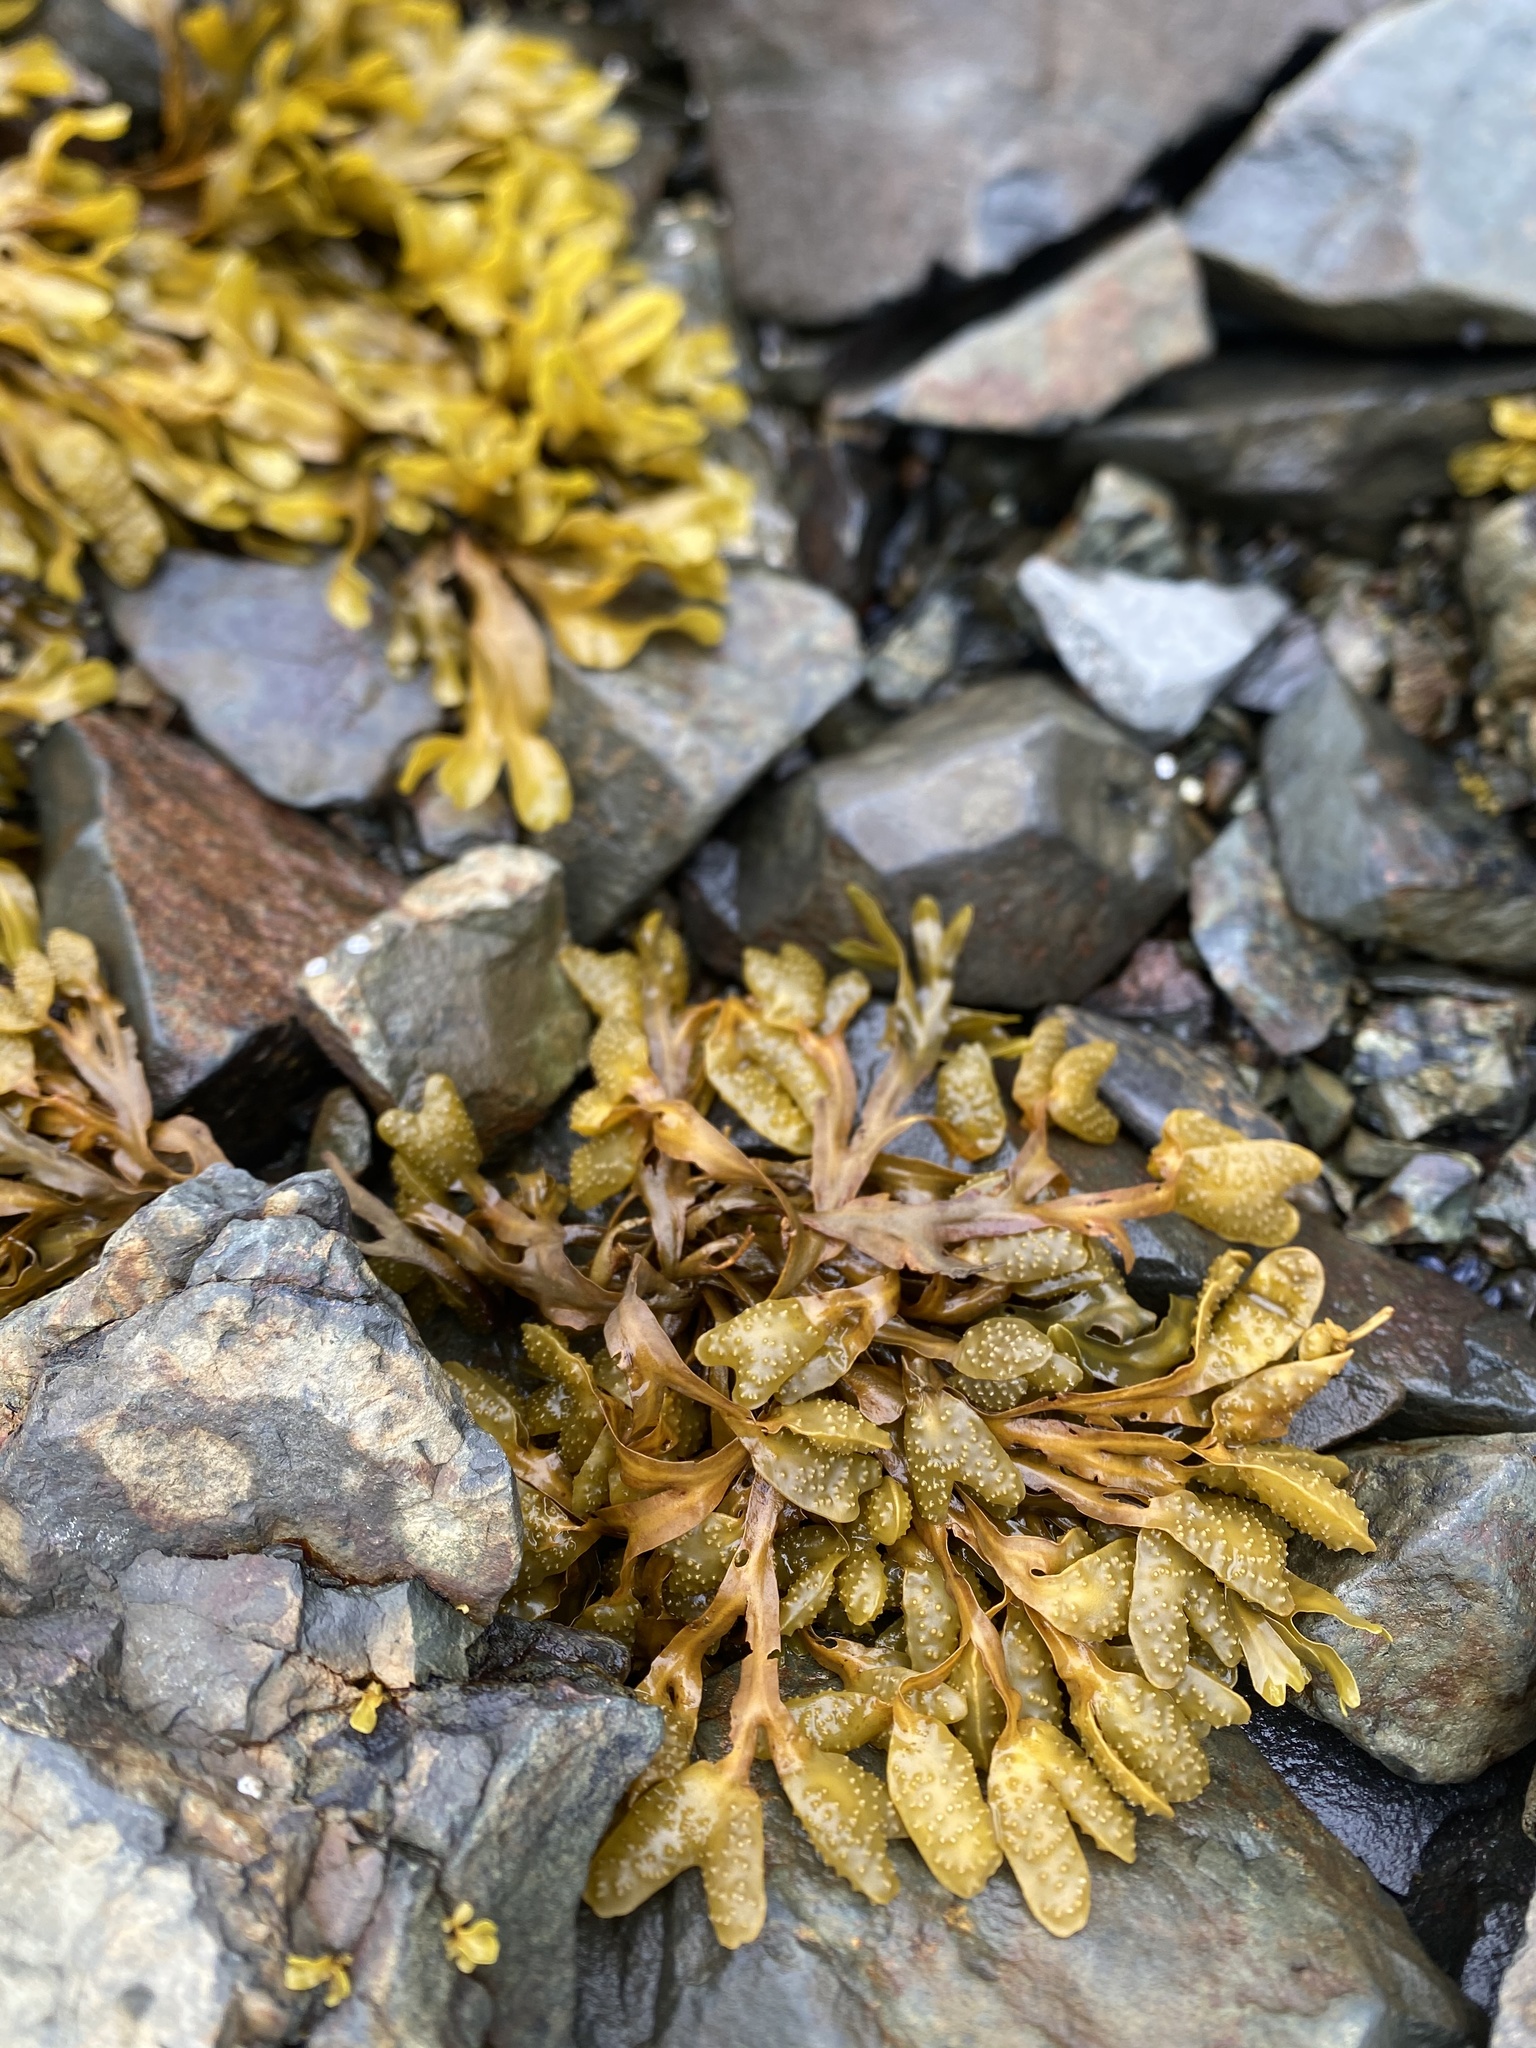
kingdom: Chromista
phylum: Ochrophyta
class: Phaeophyceae
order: Fucales
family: Fucaceae
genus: Fucus
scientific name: Fucus distichus
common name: Rockweed
